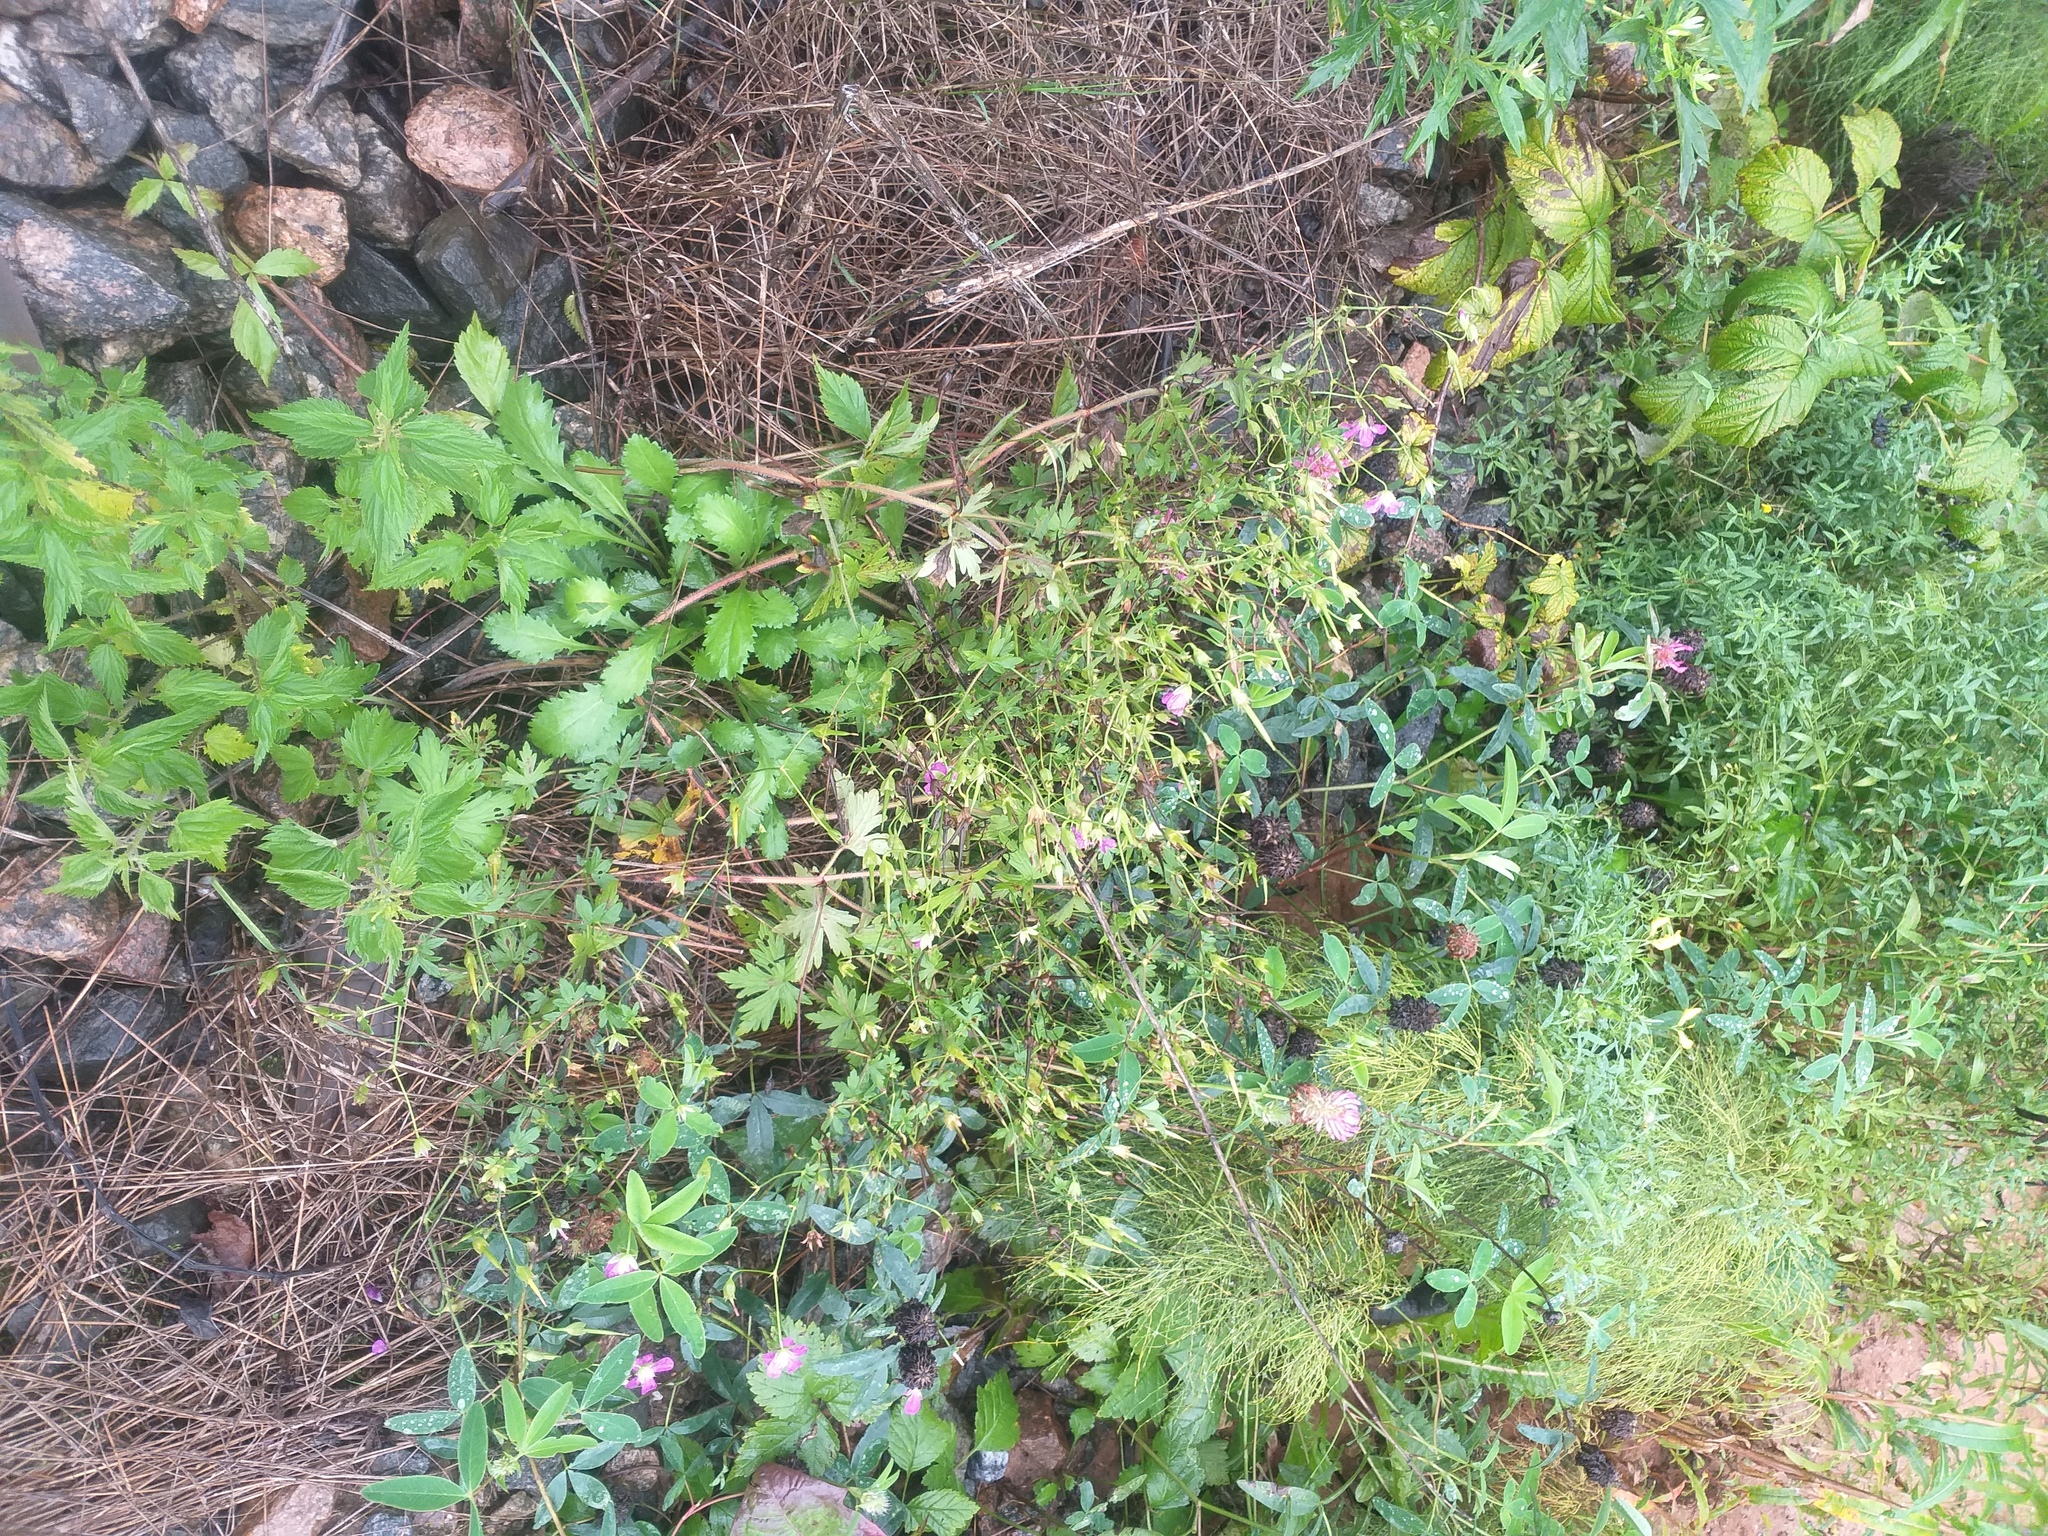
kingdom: Plantae
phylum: Tracheophyta
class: Magnoliopsida
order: Geraniales
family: Geraniaceae
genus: Geranium
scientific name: Geranium palustre
